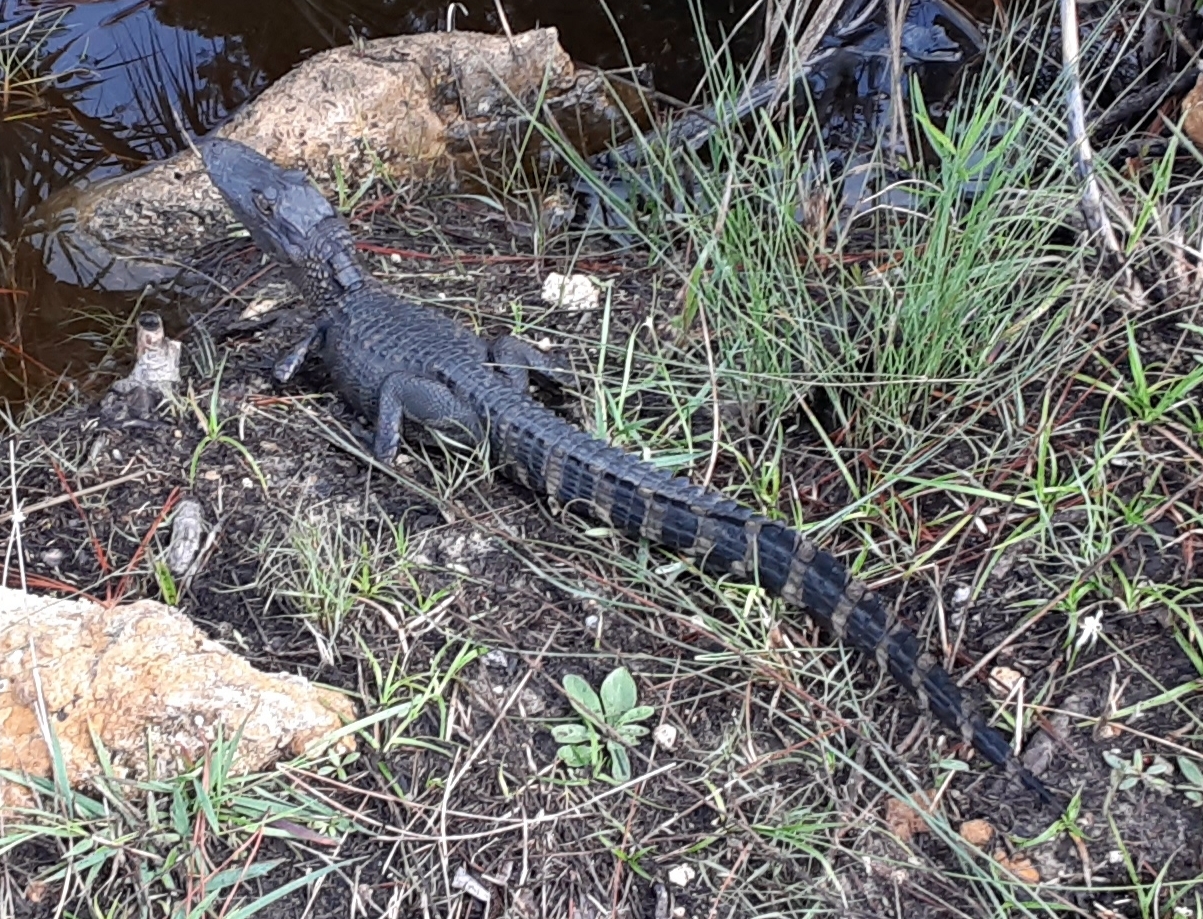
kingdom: Animalia
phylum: Chordata
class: Crocodylia
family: Alligatoridae
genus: Alligator
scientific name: Alligator mississippiensis
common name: American alligator
